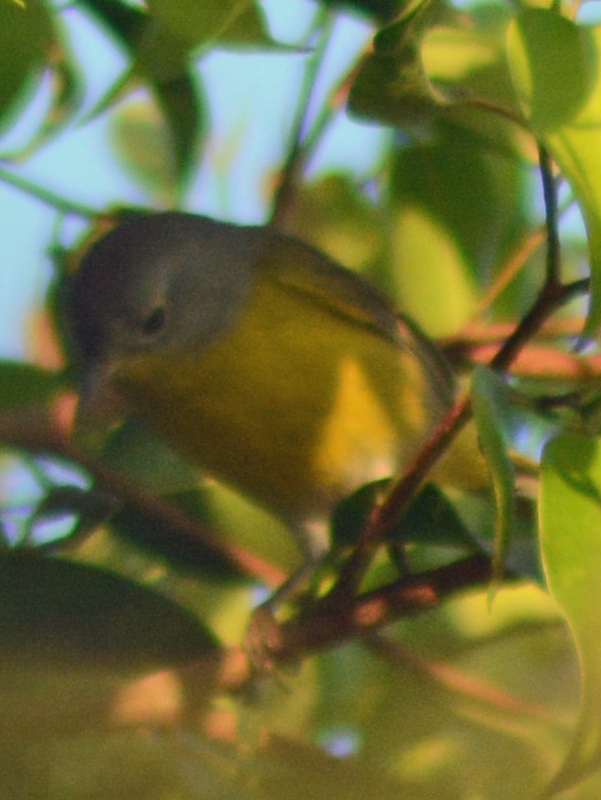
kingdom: Animalia
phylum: Chordata
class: Aves
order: Passeriformes
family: Parulidae
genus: Leiothlypis
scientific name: Leiothlypis ruficapilla
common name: Nashville warbler
